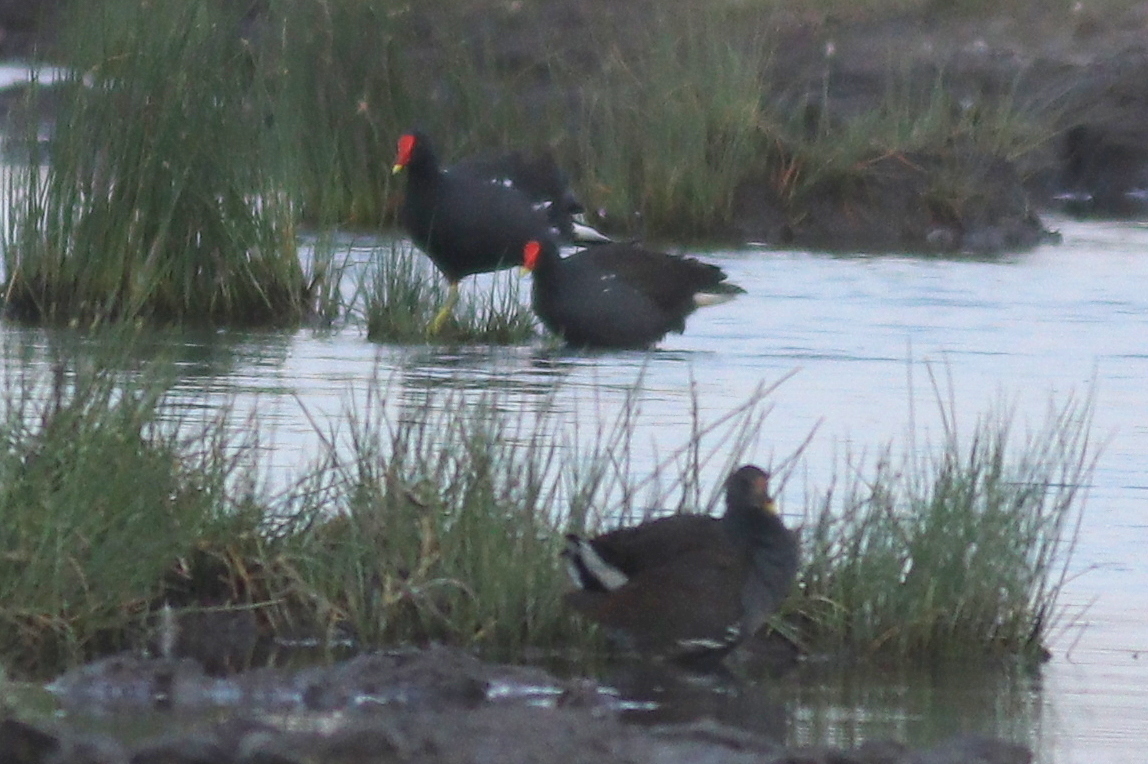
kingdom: Animalia
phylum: Chordata
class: Aves
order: Gruiformes
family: Rallidae
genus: Gallinula
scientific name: Gallinula chloropus
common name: Common moorhen
